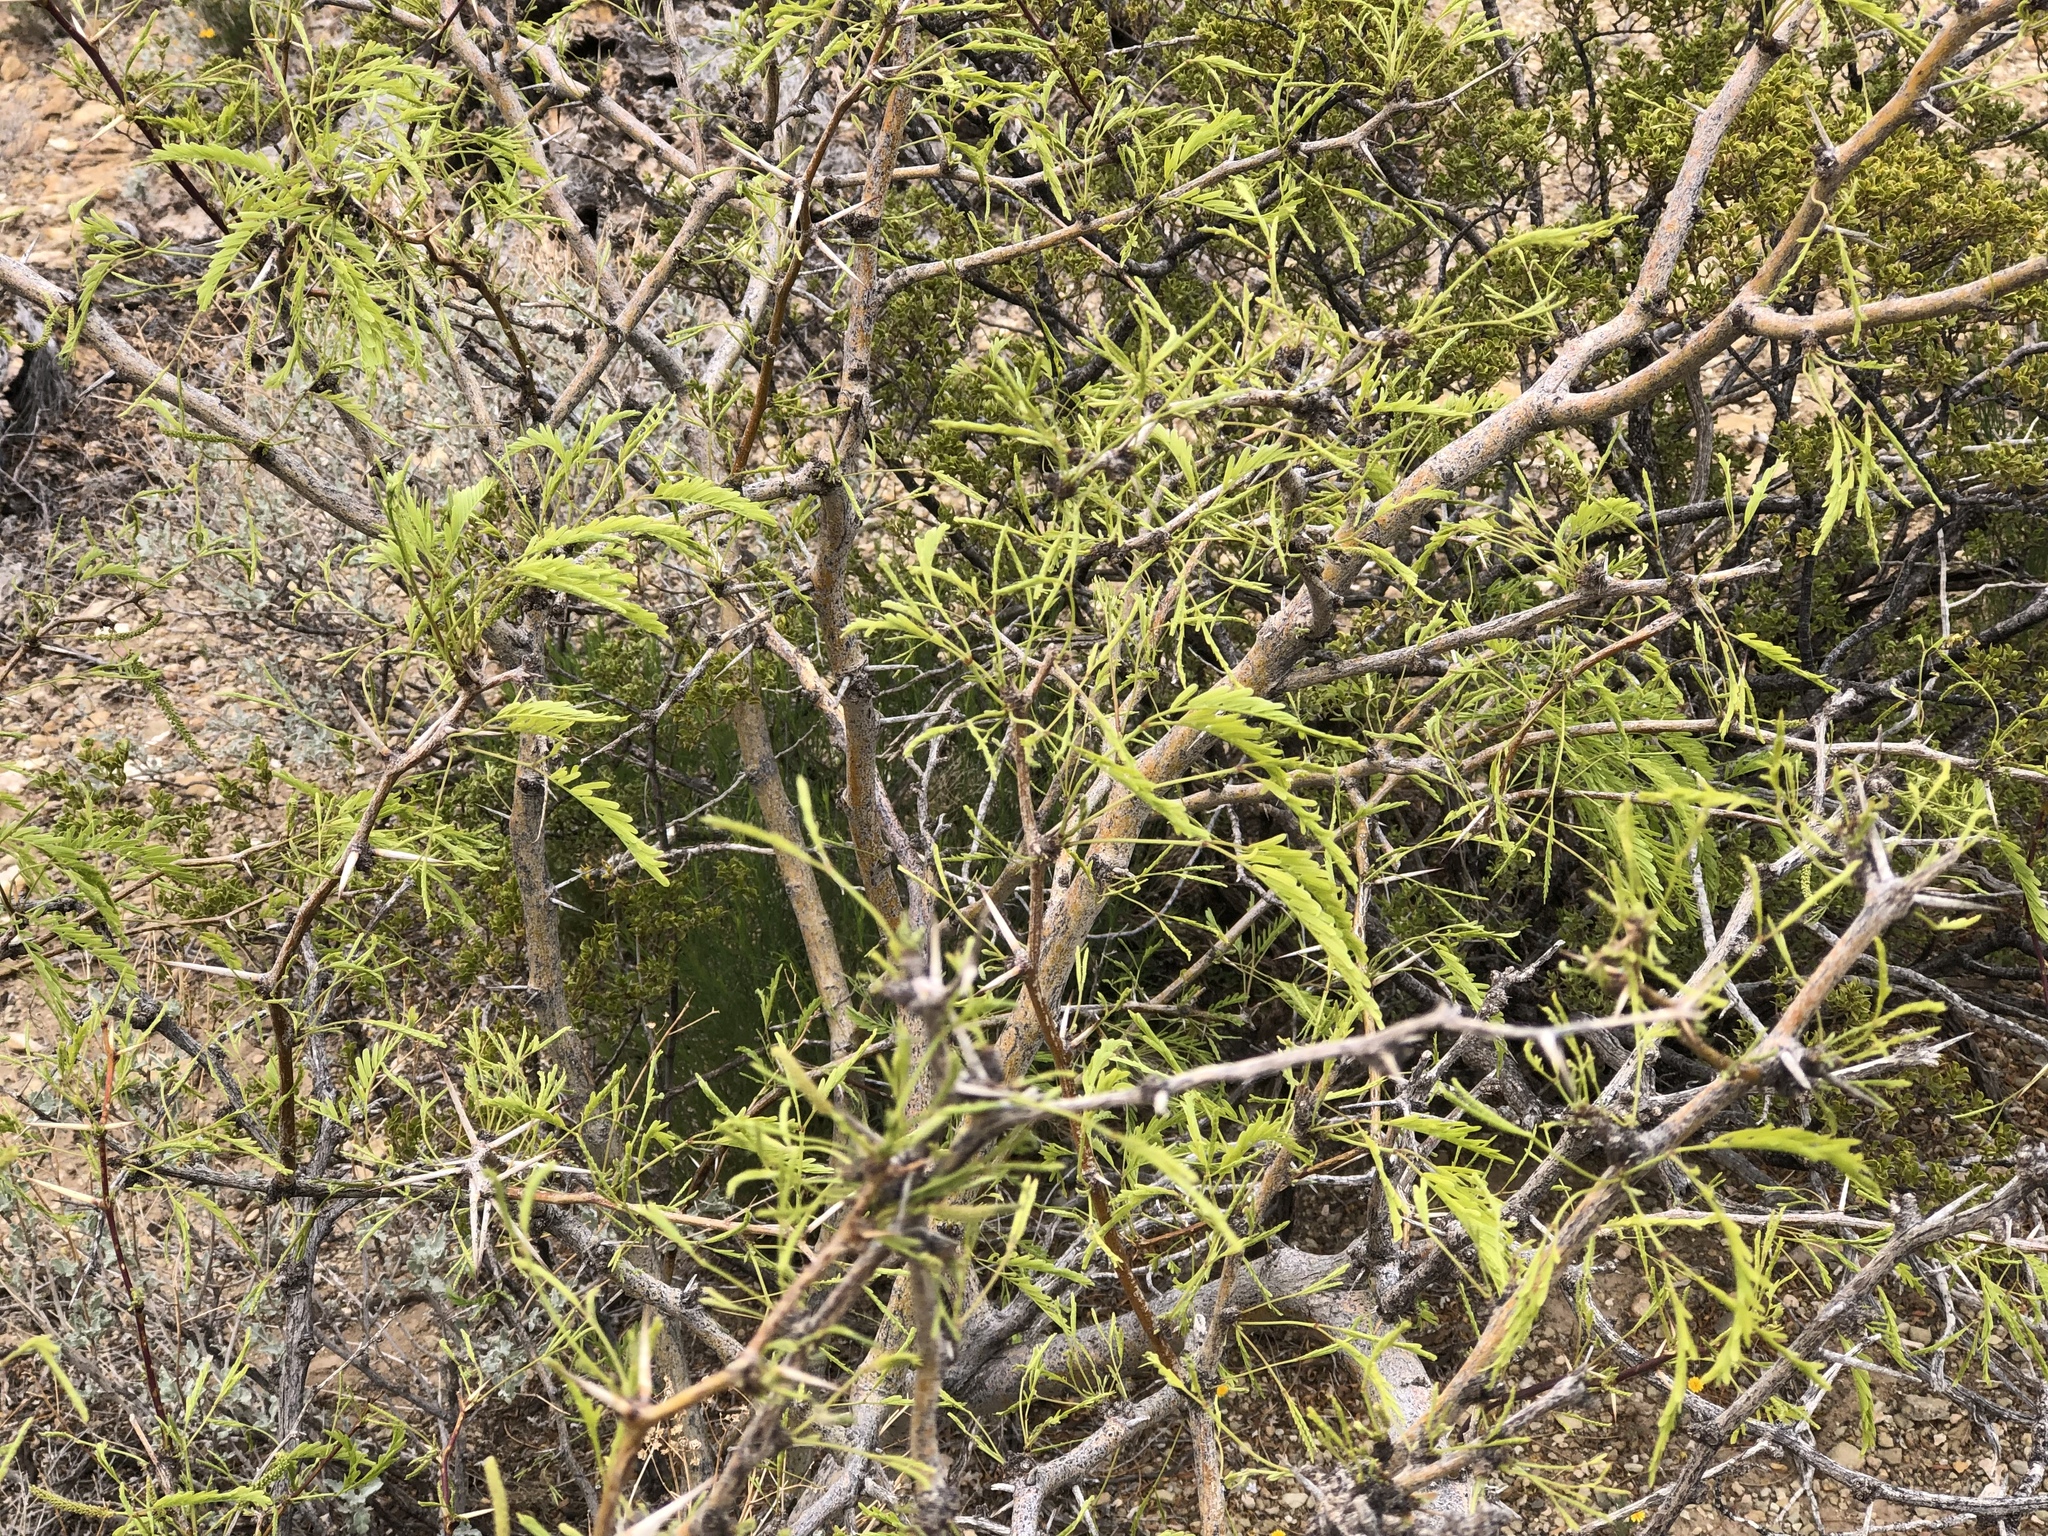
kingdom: Plantae
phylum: Tracheophyta
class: Magnoliopsida
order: Fabales
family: Fabaceae
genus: Prosopis
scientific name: Prosopis glandulosa
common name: Honey mesquite
